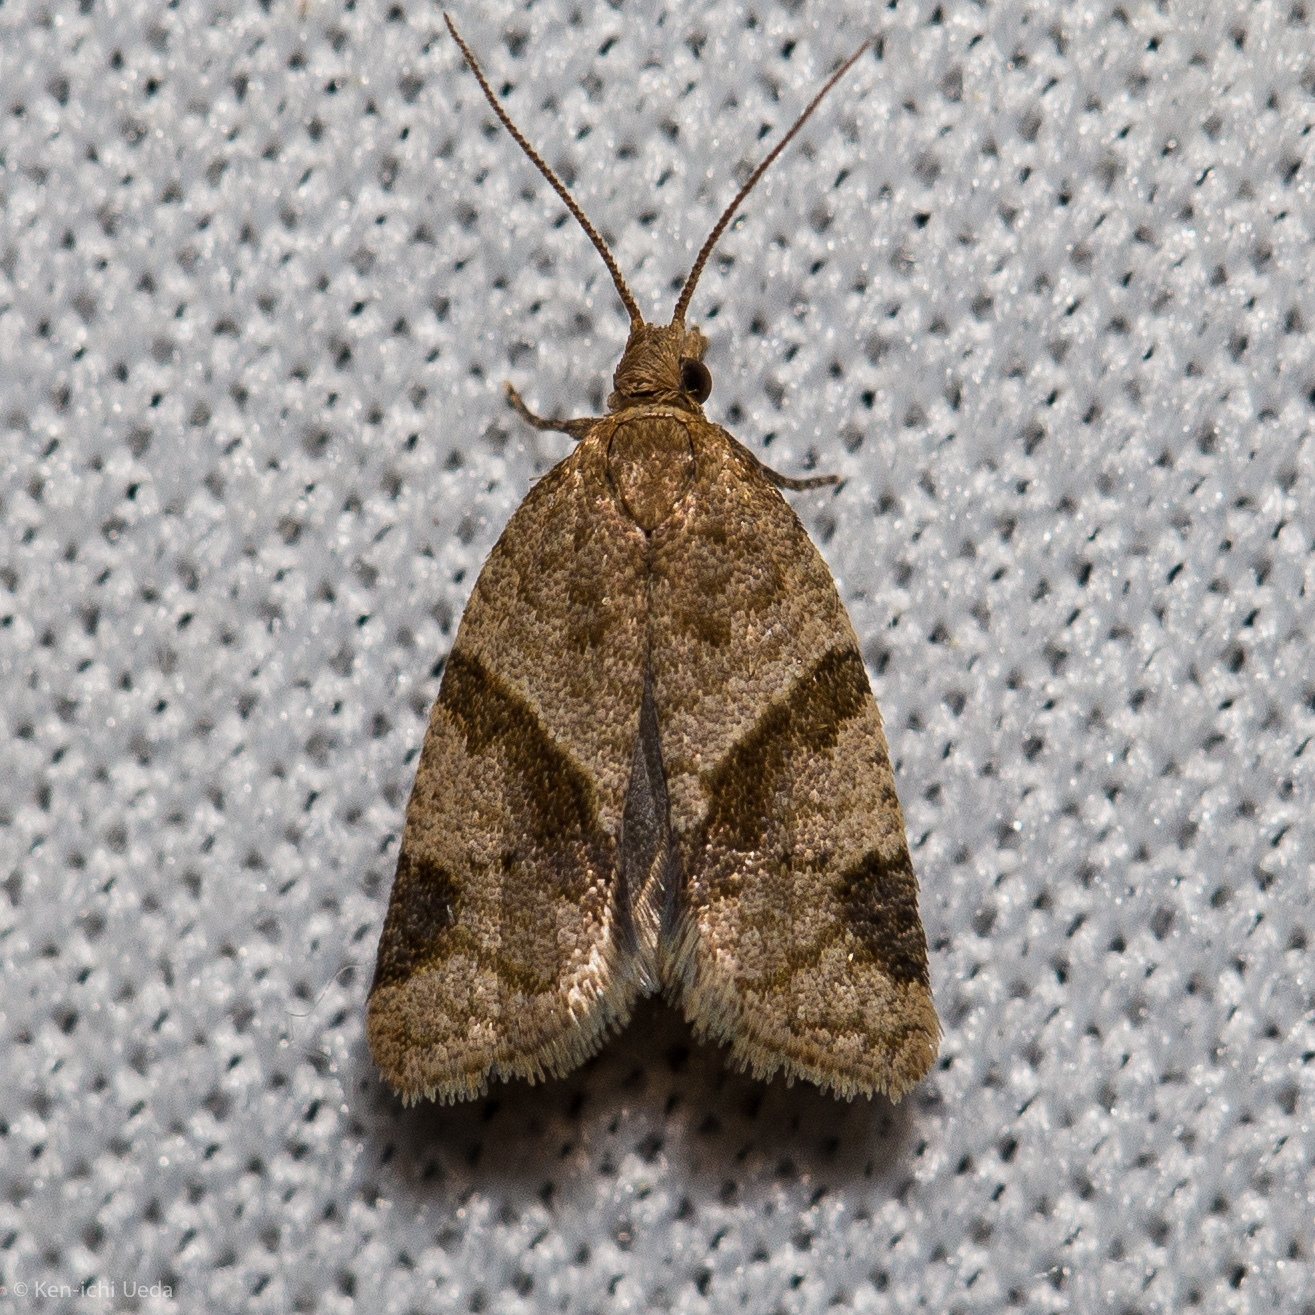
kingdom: Animalia
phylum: Arthropoda
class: Insecta
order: Lepidoptera
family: Tortricidae
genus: Clepsis
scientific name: Clepsis peritana
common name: Garden tortrix
